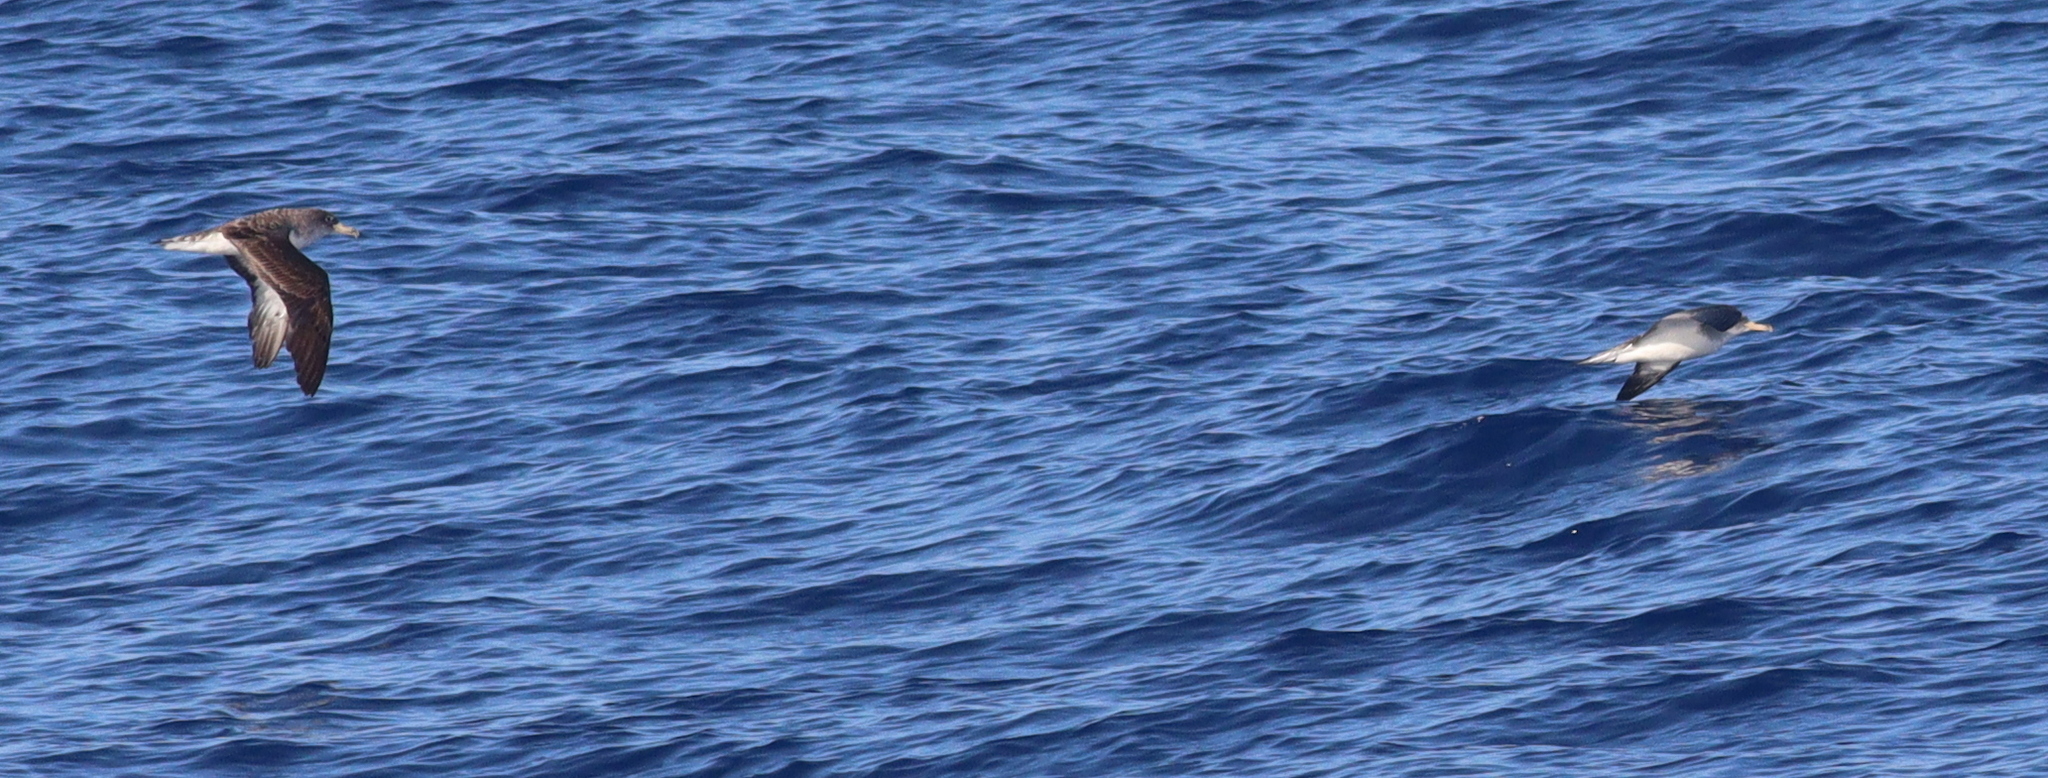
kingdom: Animalia
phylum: Chordata
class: Aves
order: Procellariiformes
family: Procellariidae
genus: Calonectris
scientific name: Calonectris diomedea
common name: Cory's shearwater
